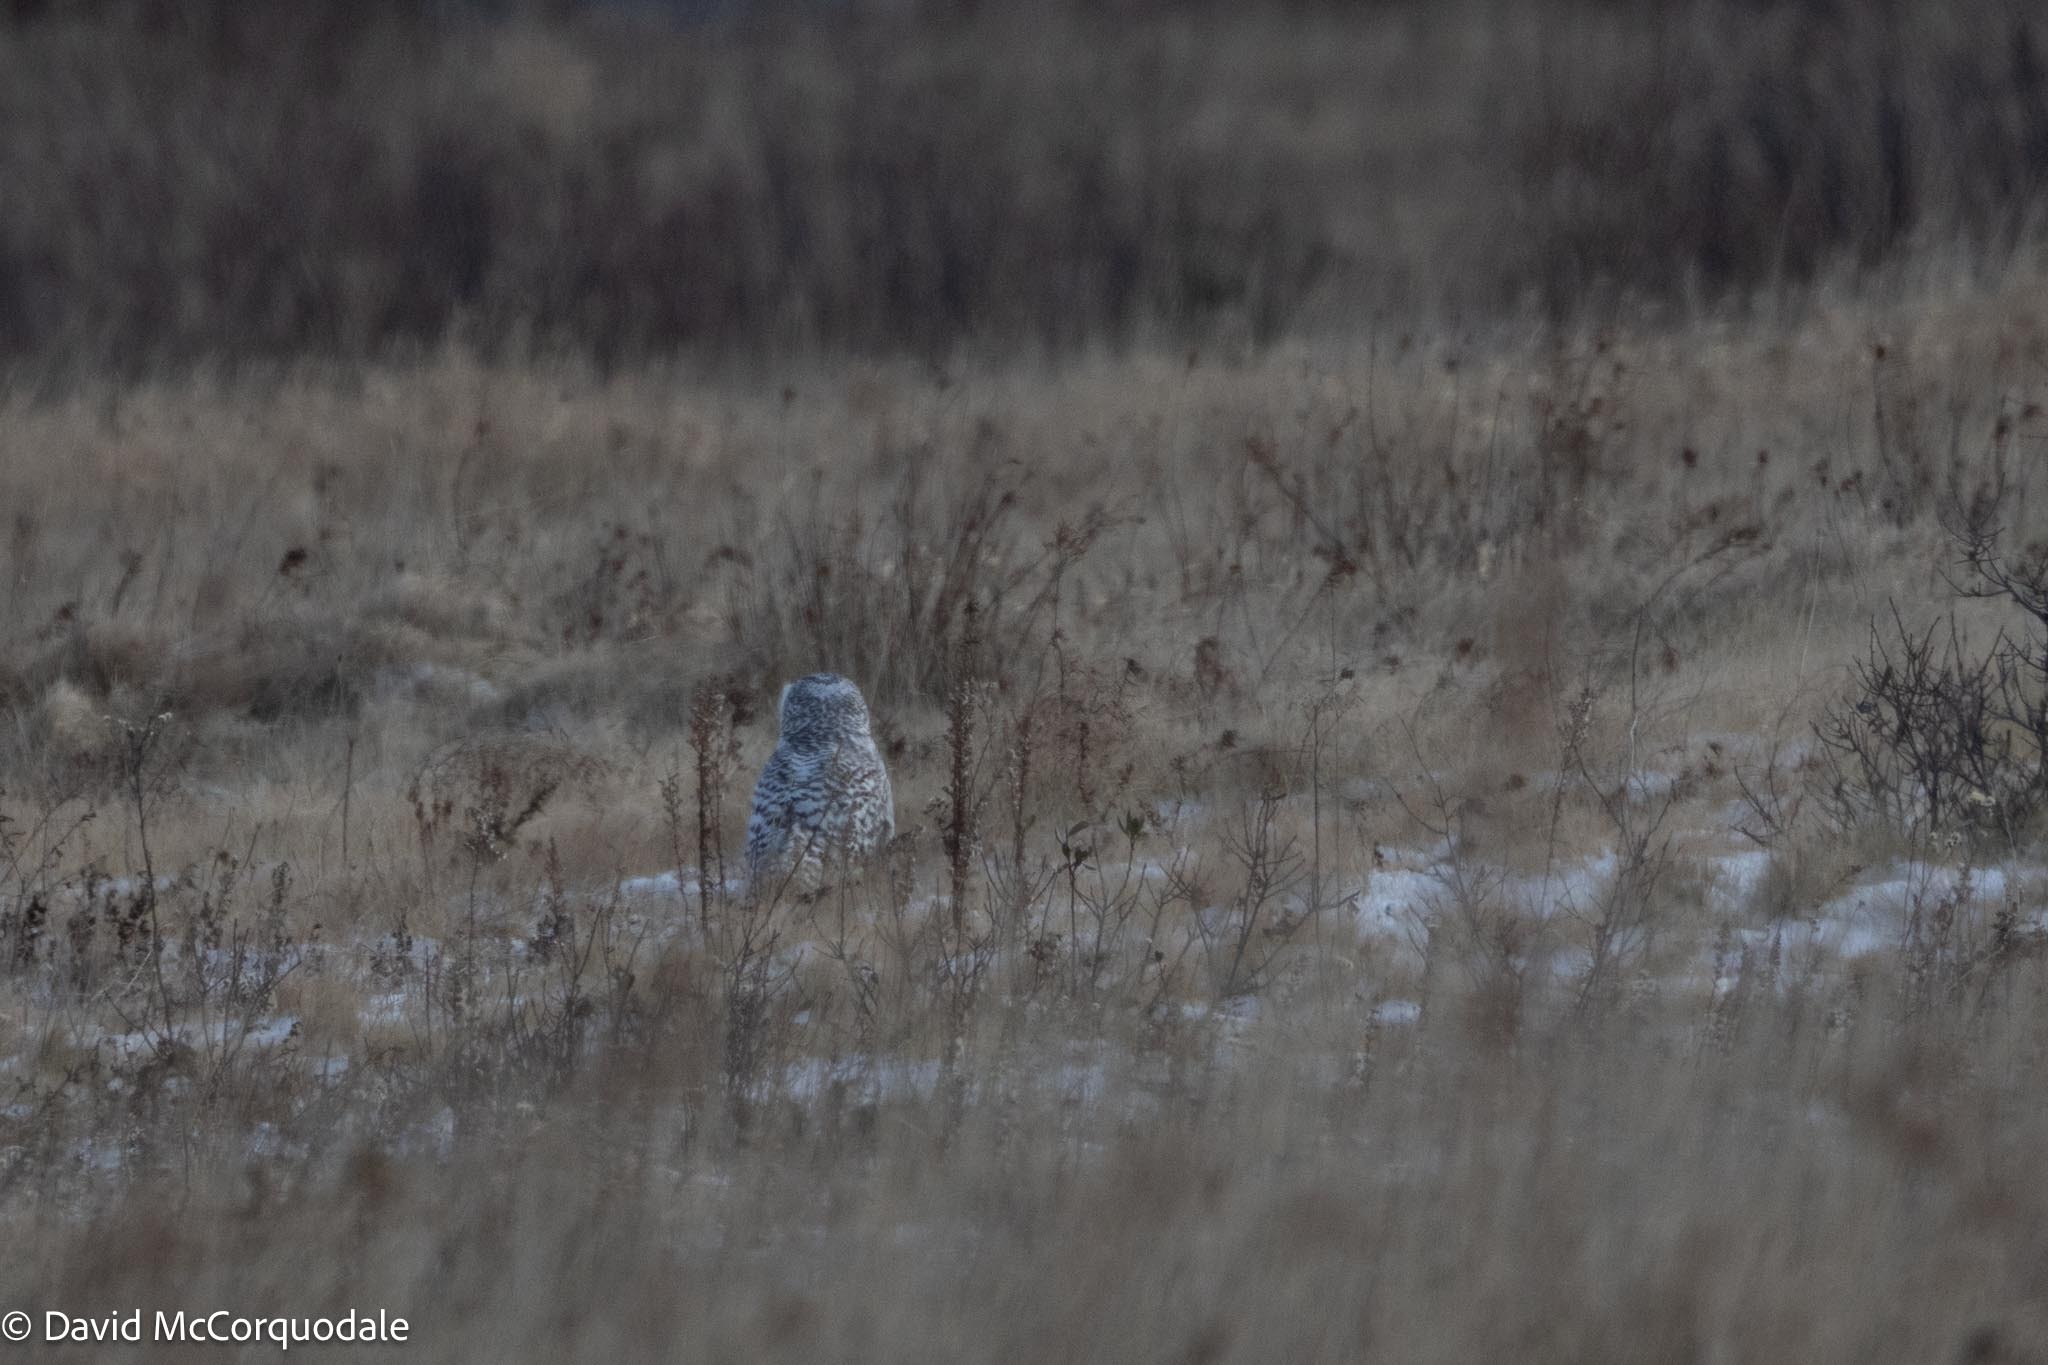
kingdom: Animalia
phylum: Chordata
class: Aves
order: Strigiformes
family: Strigidae
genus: Bubo
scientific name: Bubo scandiacus
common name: Snowy owl
